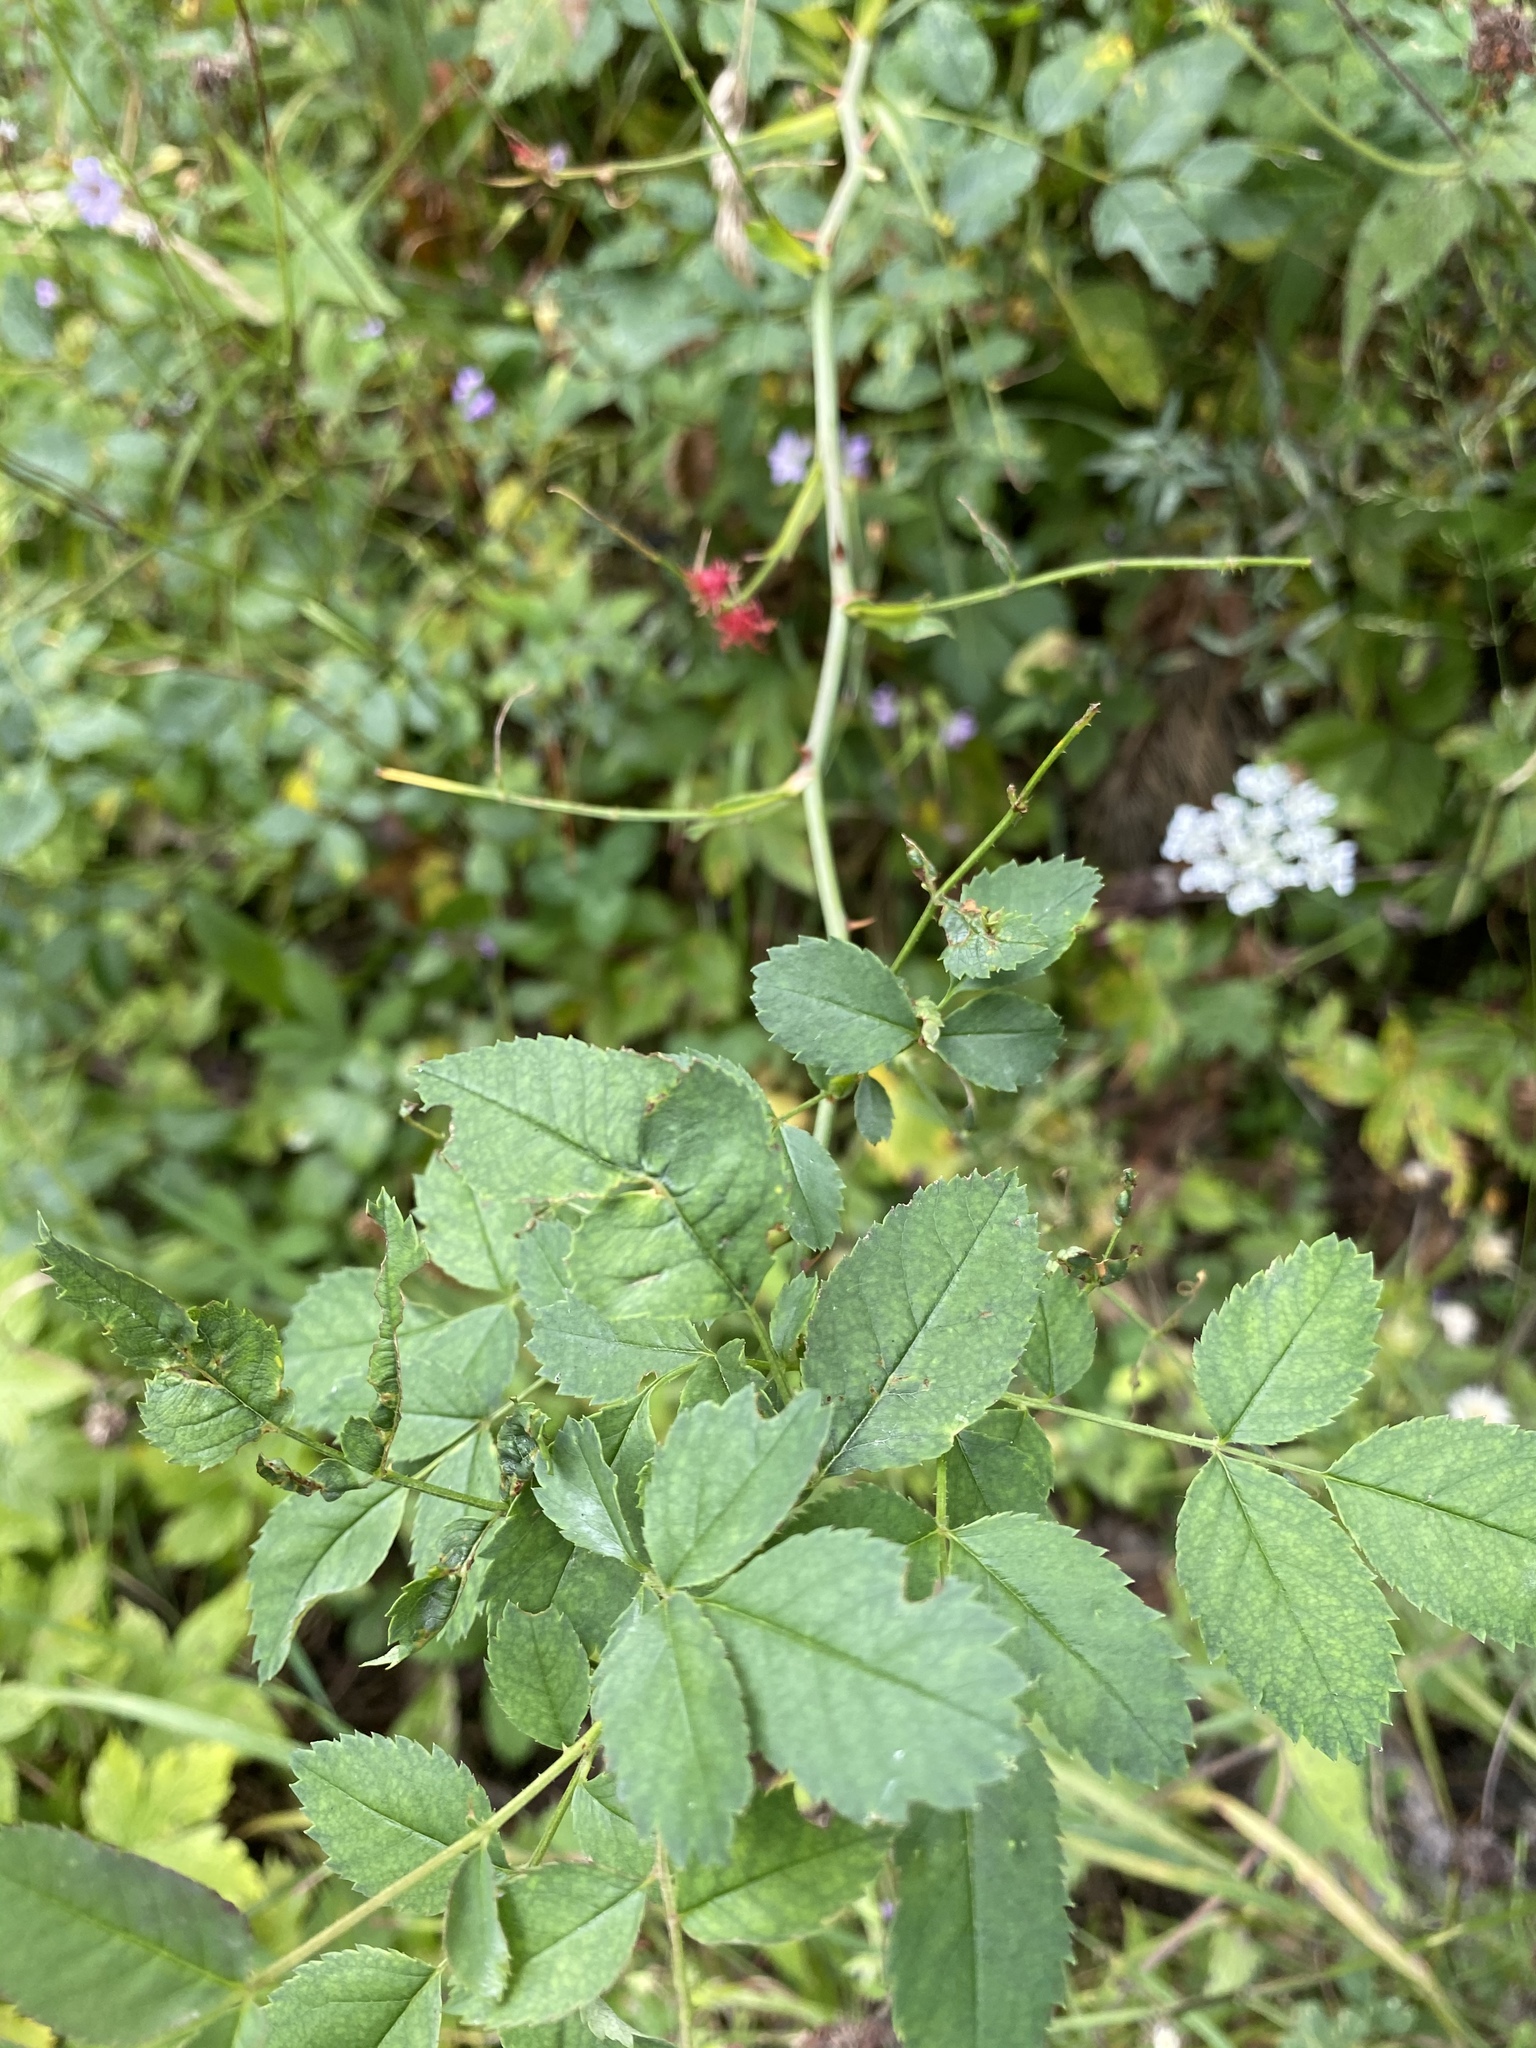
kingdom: Animalia
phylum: Arthropoda
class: Insecta
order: Hymenoptera
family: Cynipidae
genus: Diplolepis
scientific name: Diplolepis rosae
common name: Bedeguar gall
